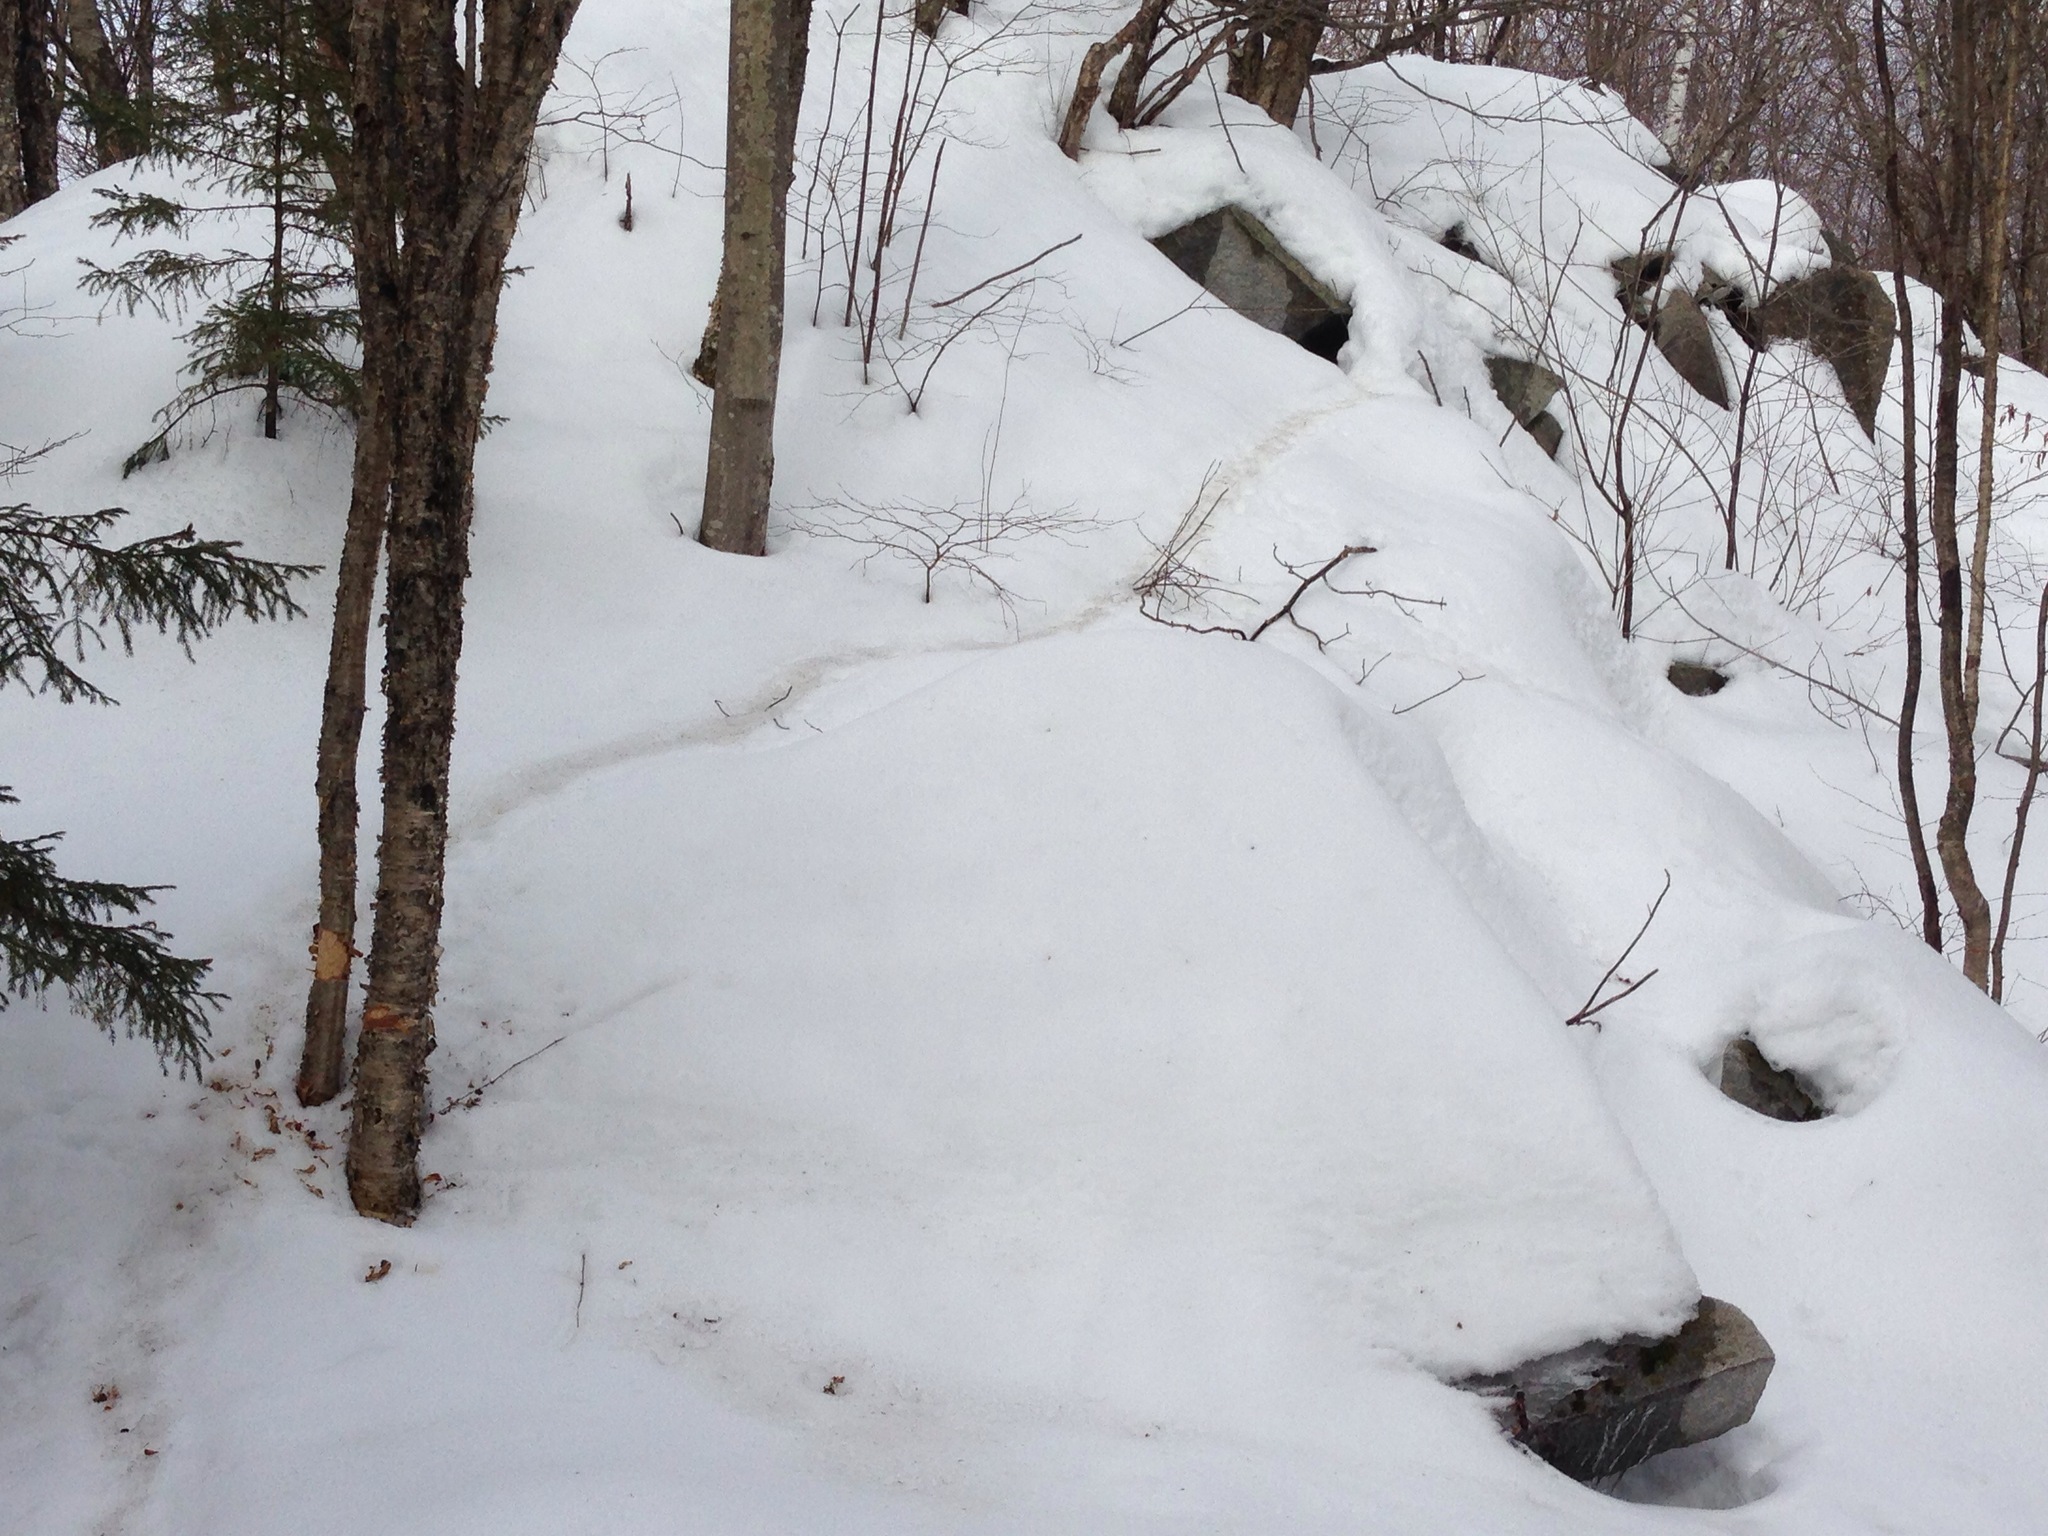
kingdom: Animalia
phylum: Chordata
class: Mammalia
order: Rodentia
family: Erethizontidae
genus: Erethizon
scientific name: Erethizon dorsatus
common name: North american porcupine
